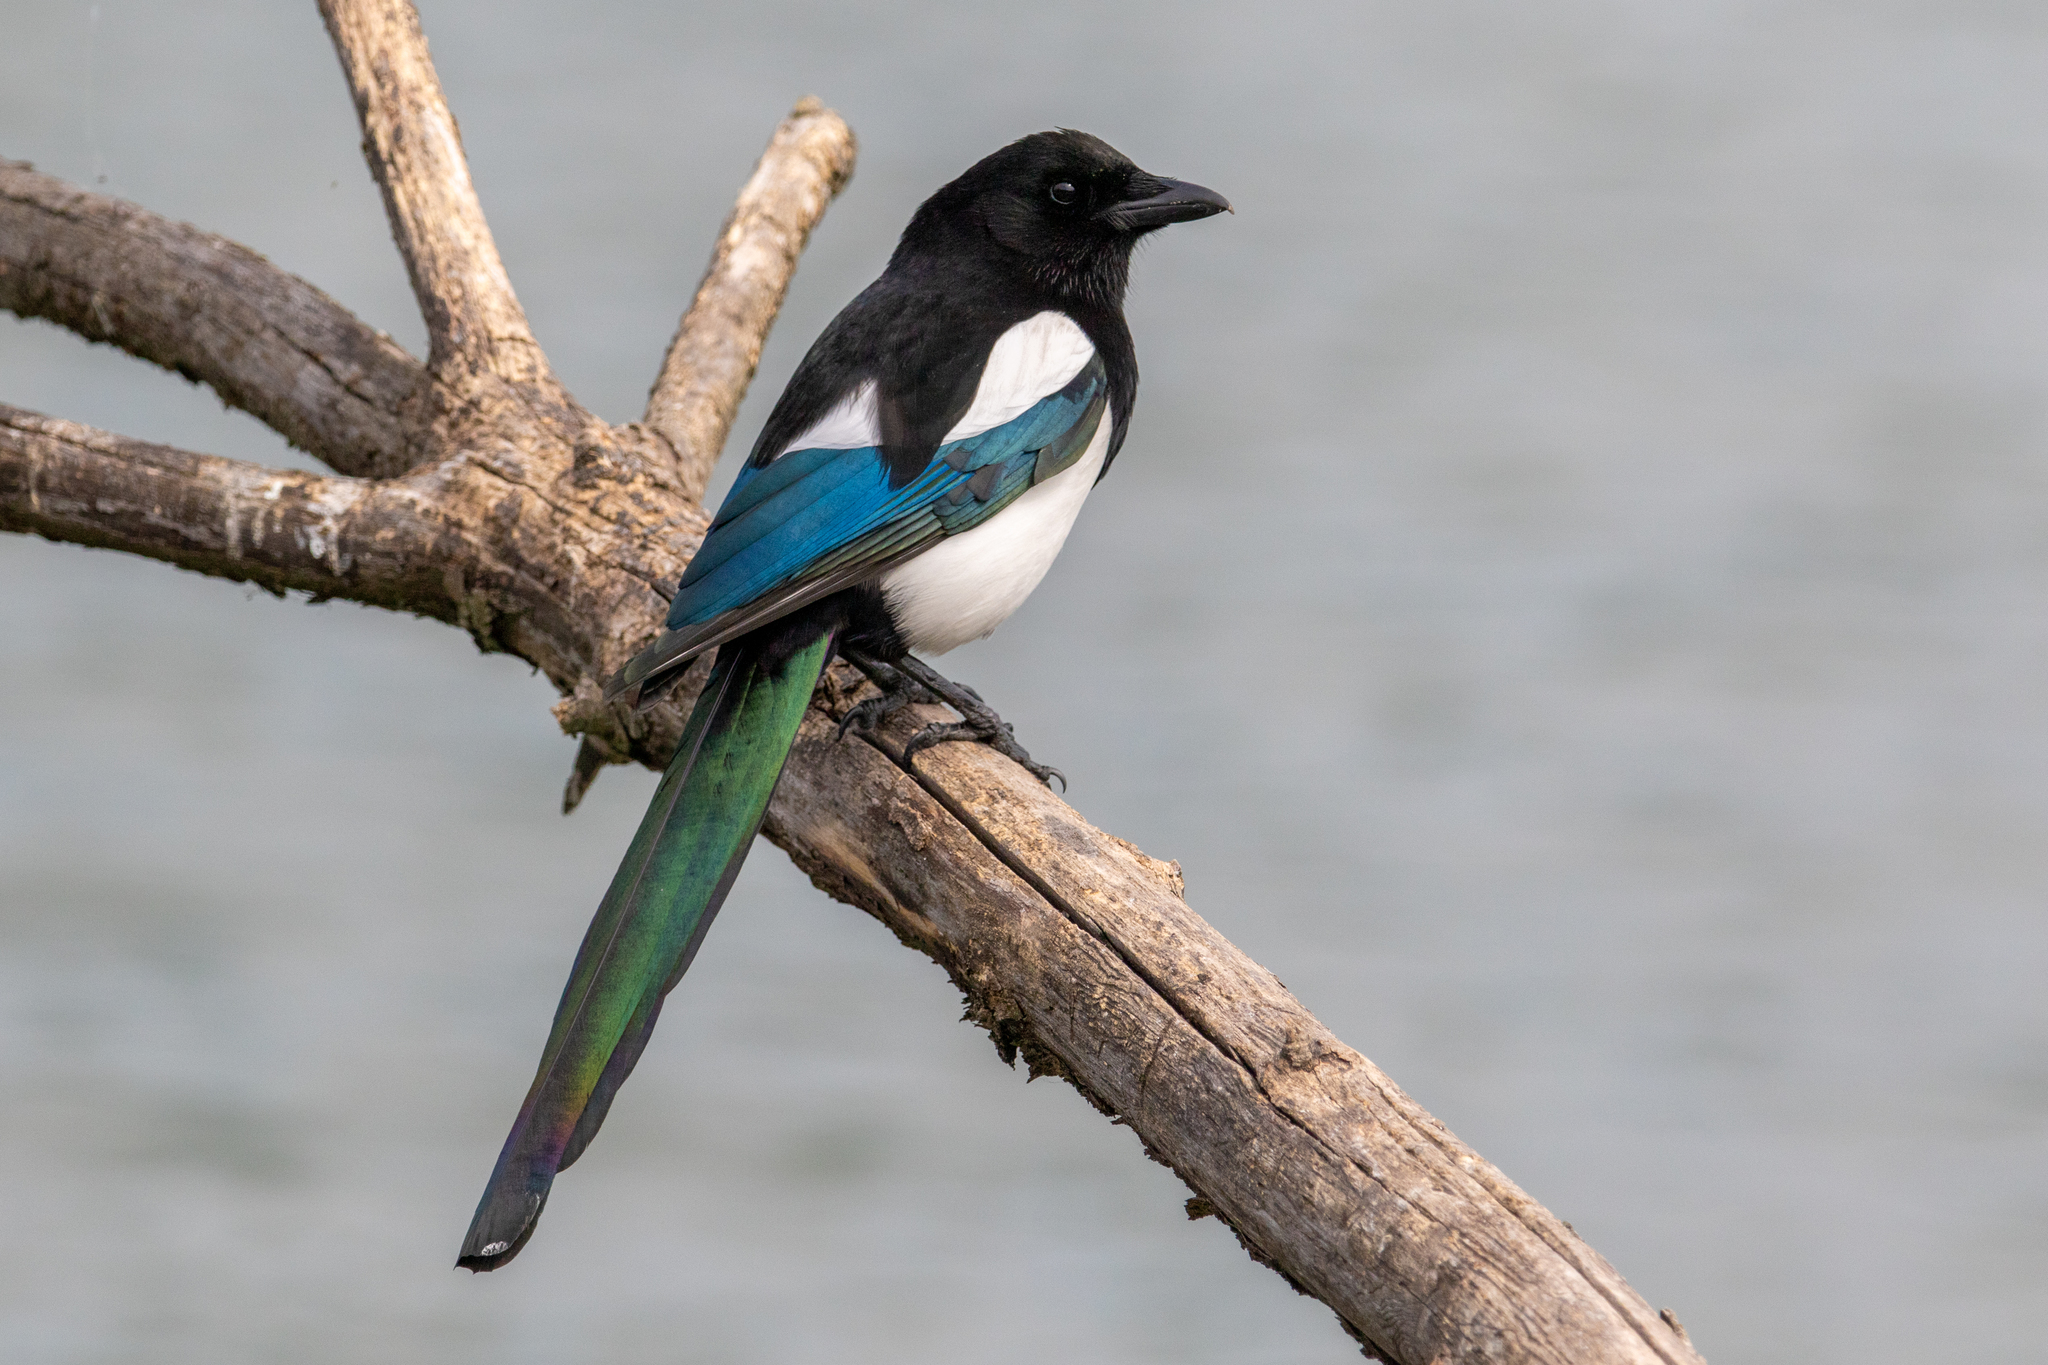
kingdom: Animalia
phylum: Chordata
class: Aves
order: Passeriformes
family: Corvidae
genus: Pica
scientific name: Pica pica
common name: Eurasian magpie
